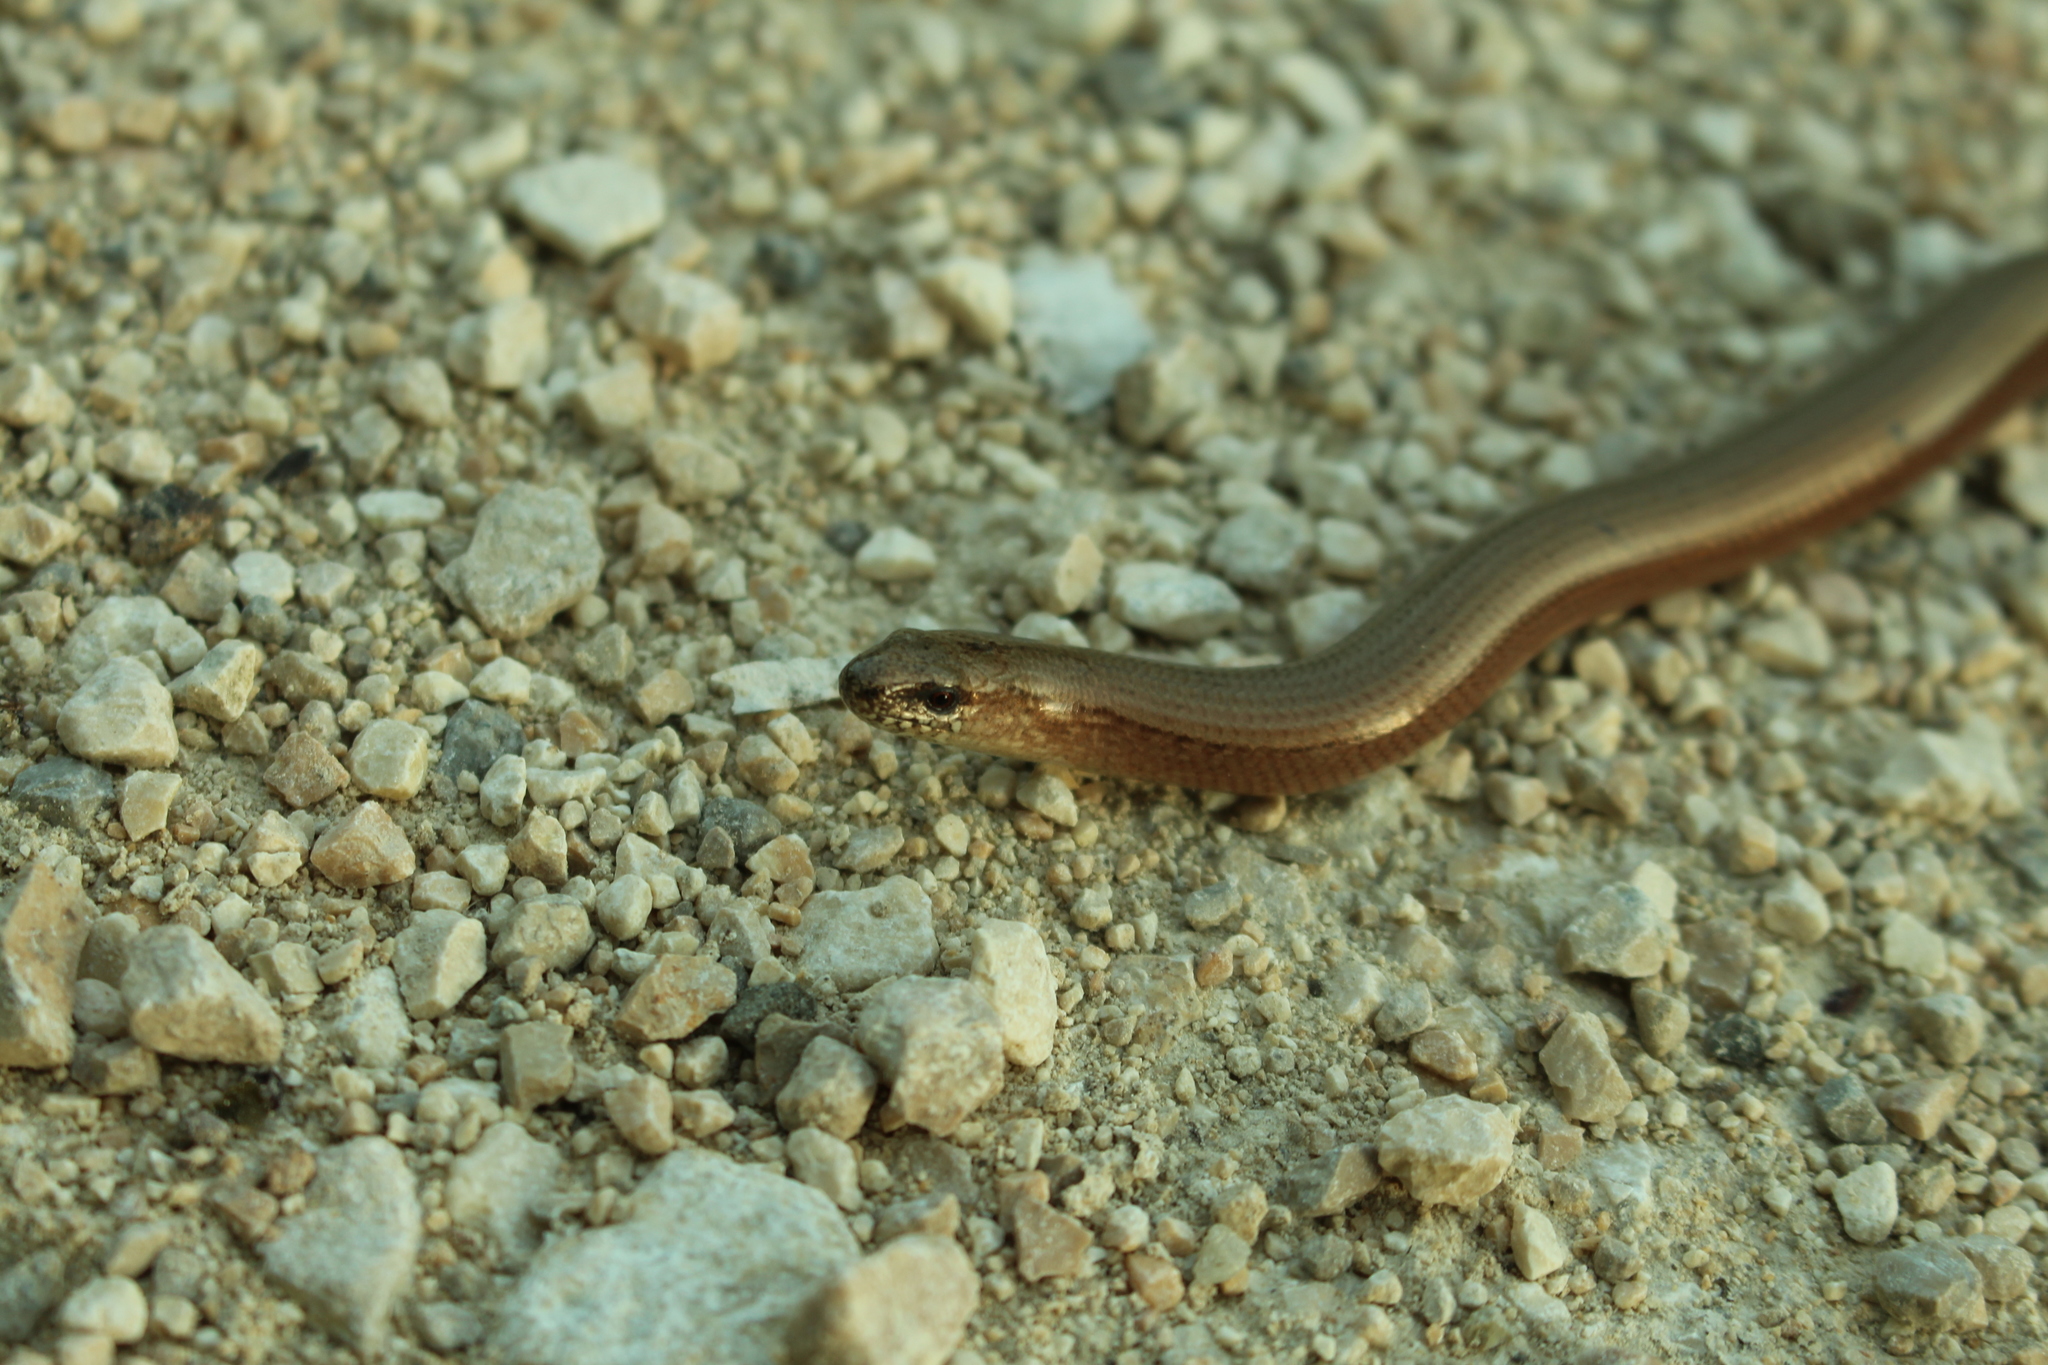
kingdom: Animalia
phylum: Chordata
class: Squamata
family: Anguidae
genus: Anguis
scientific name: Anguis fragilis
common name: Slow worm
